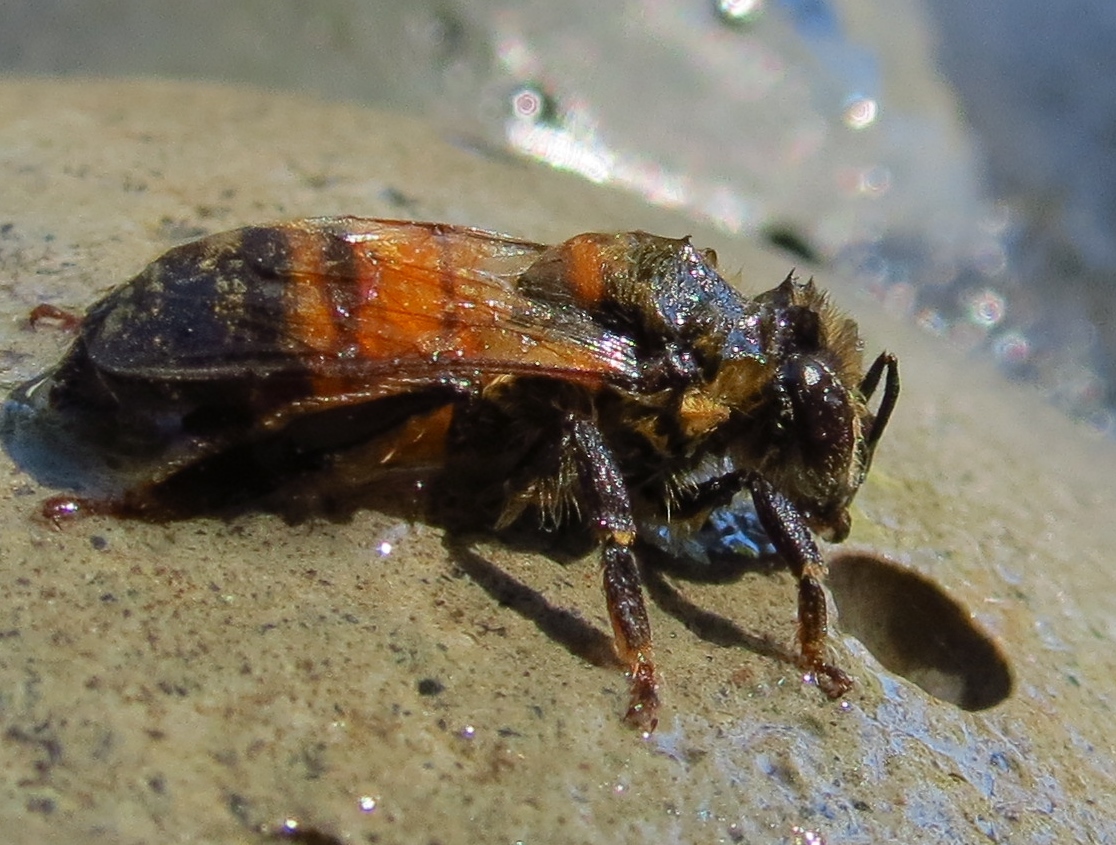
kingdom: Animalia
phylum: Arthropoda
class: Insecta
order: Hymenoptera
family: Apidae
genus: Apis
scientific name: Apis mellifera
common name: Honey bee
